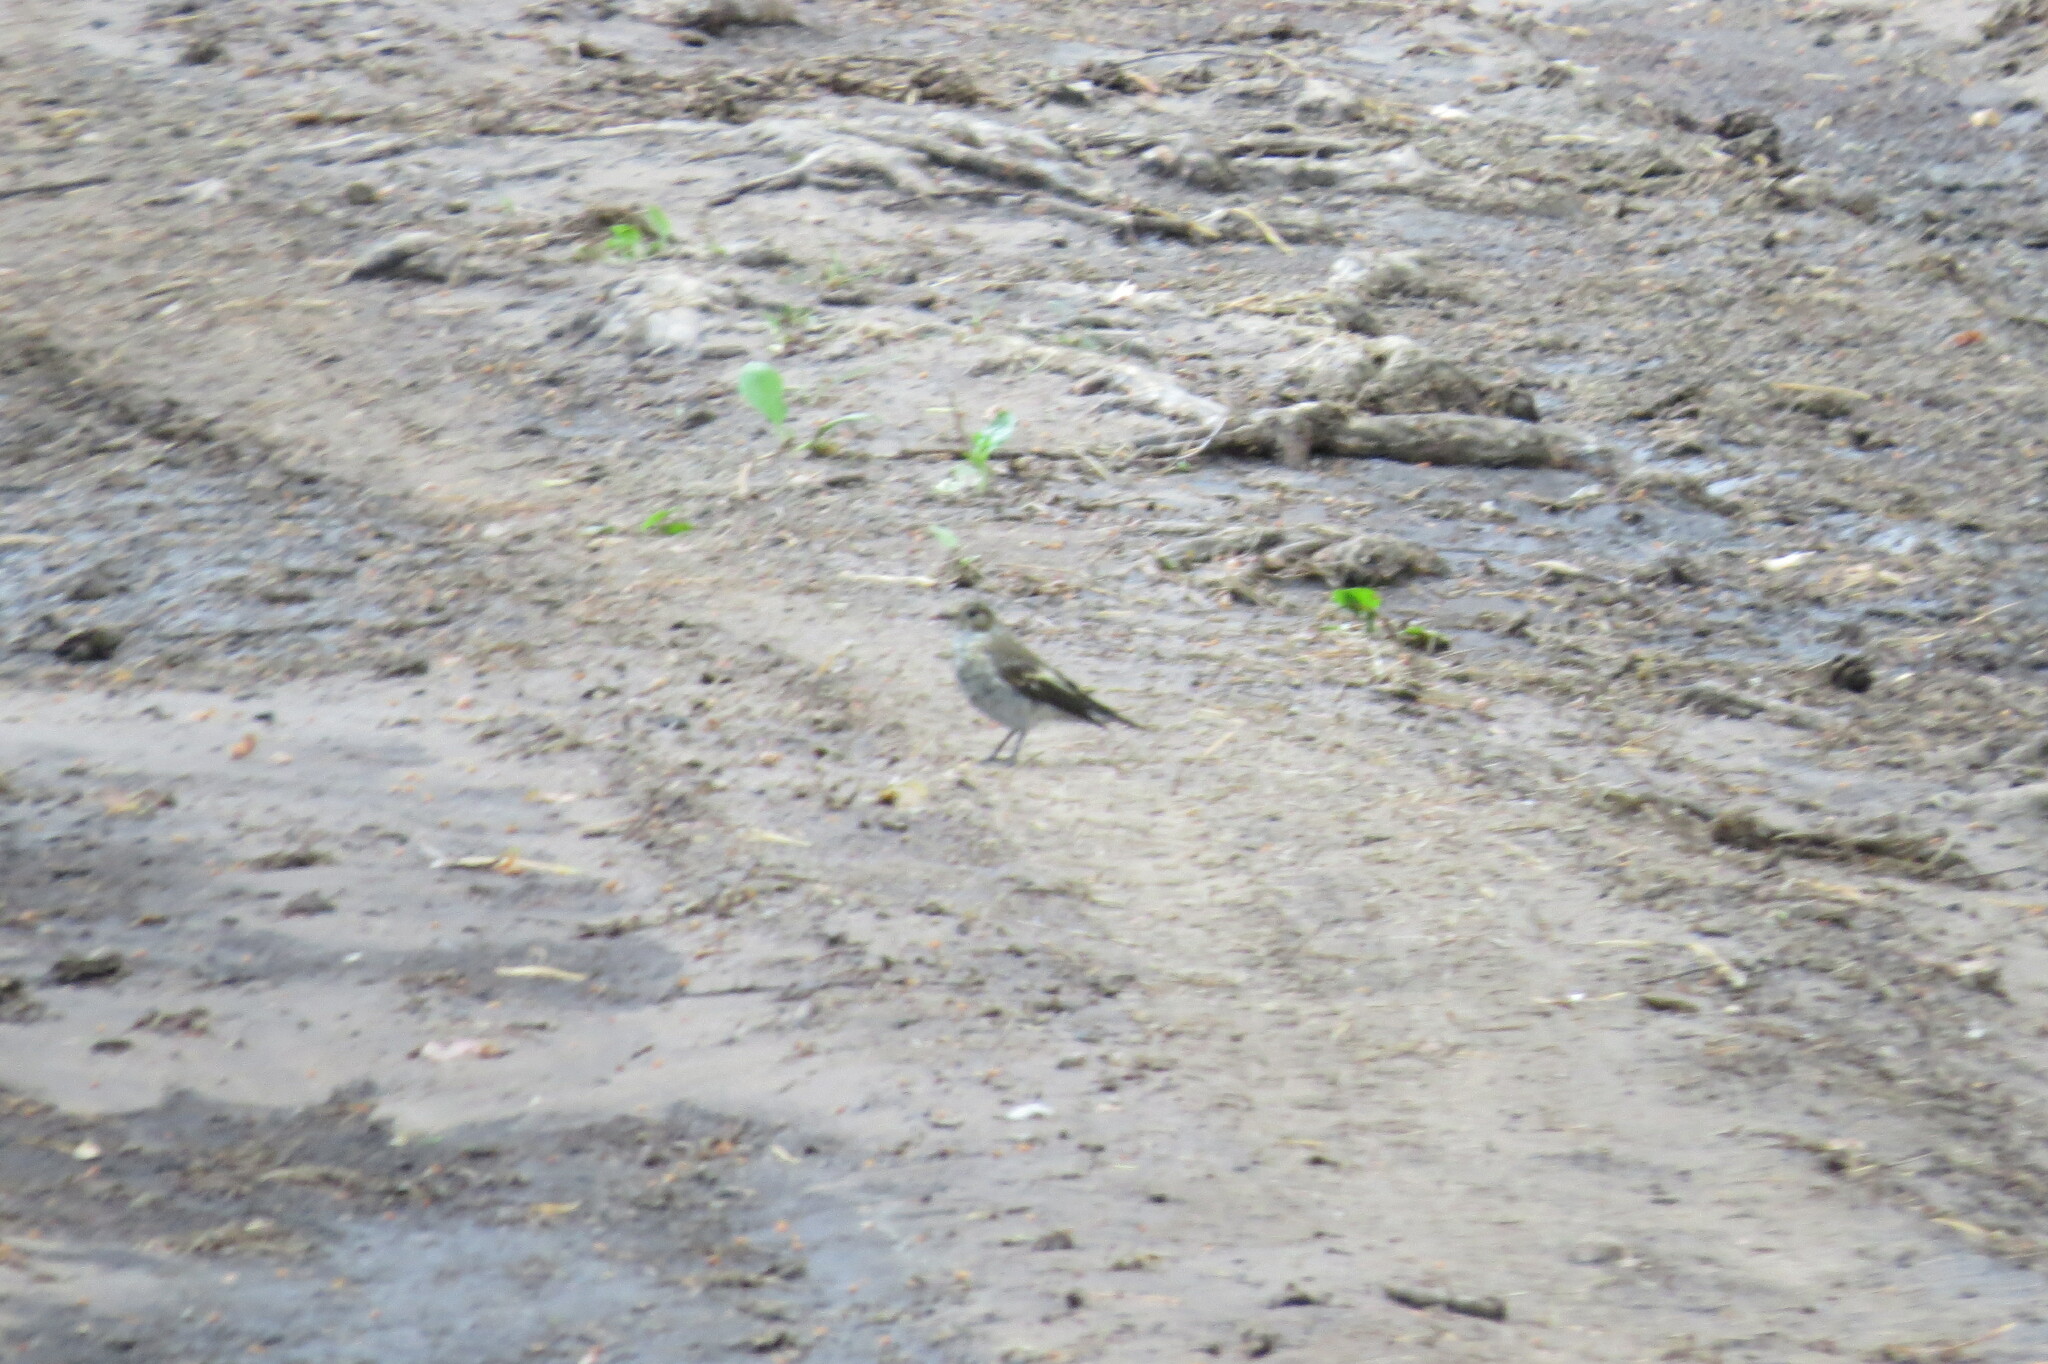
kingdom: Animalia
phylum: Chordata
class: Aves
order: Passeriformes
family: Muscicapidae
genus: Ficedula
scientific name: Ficedula hypoleuca
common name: European pied flycatcher
